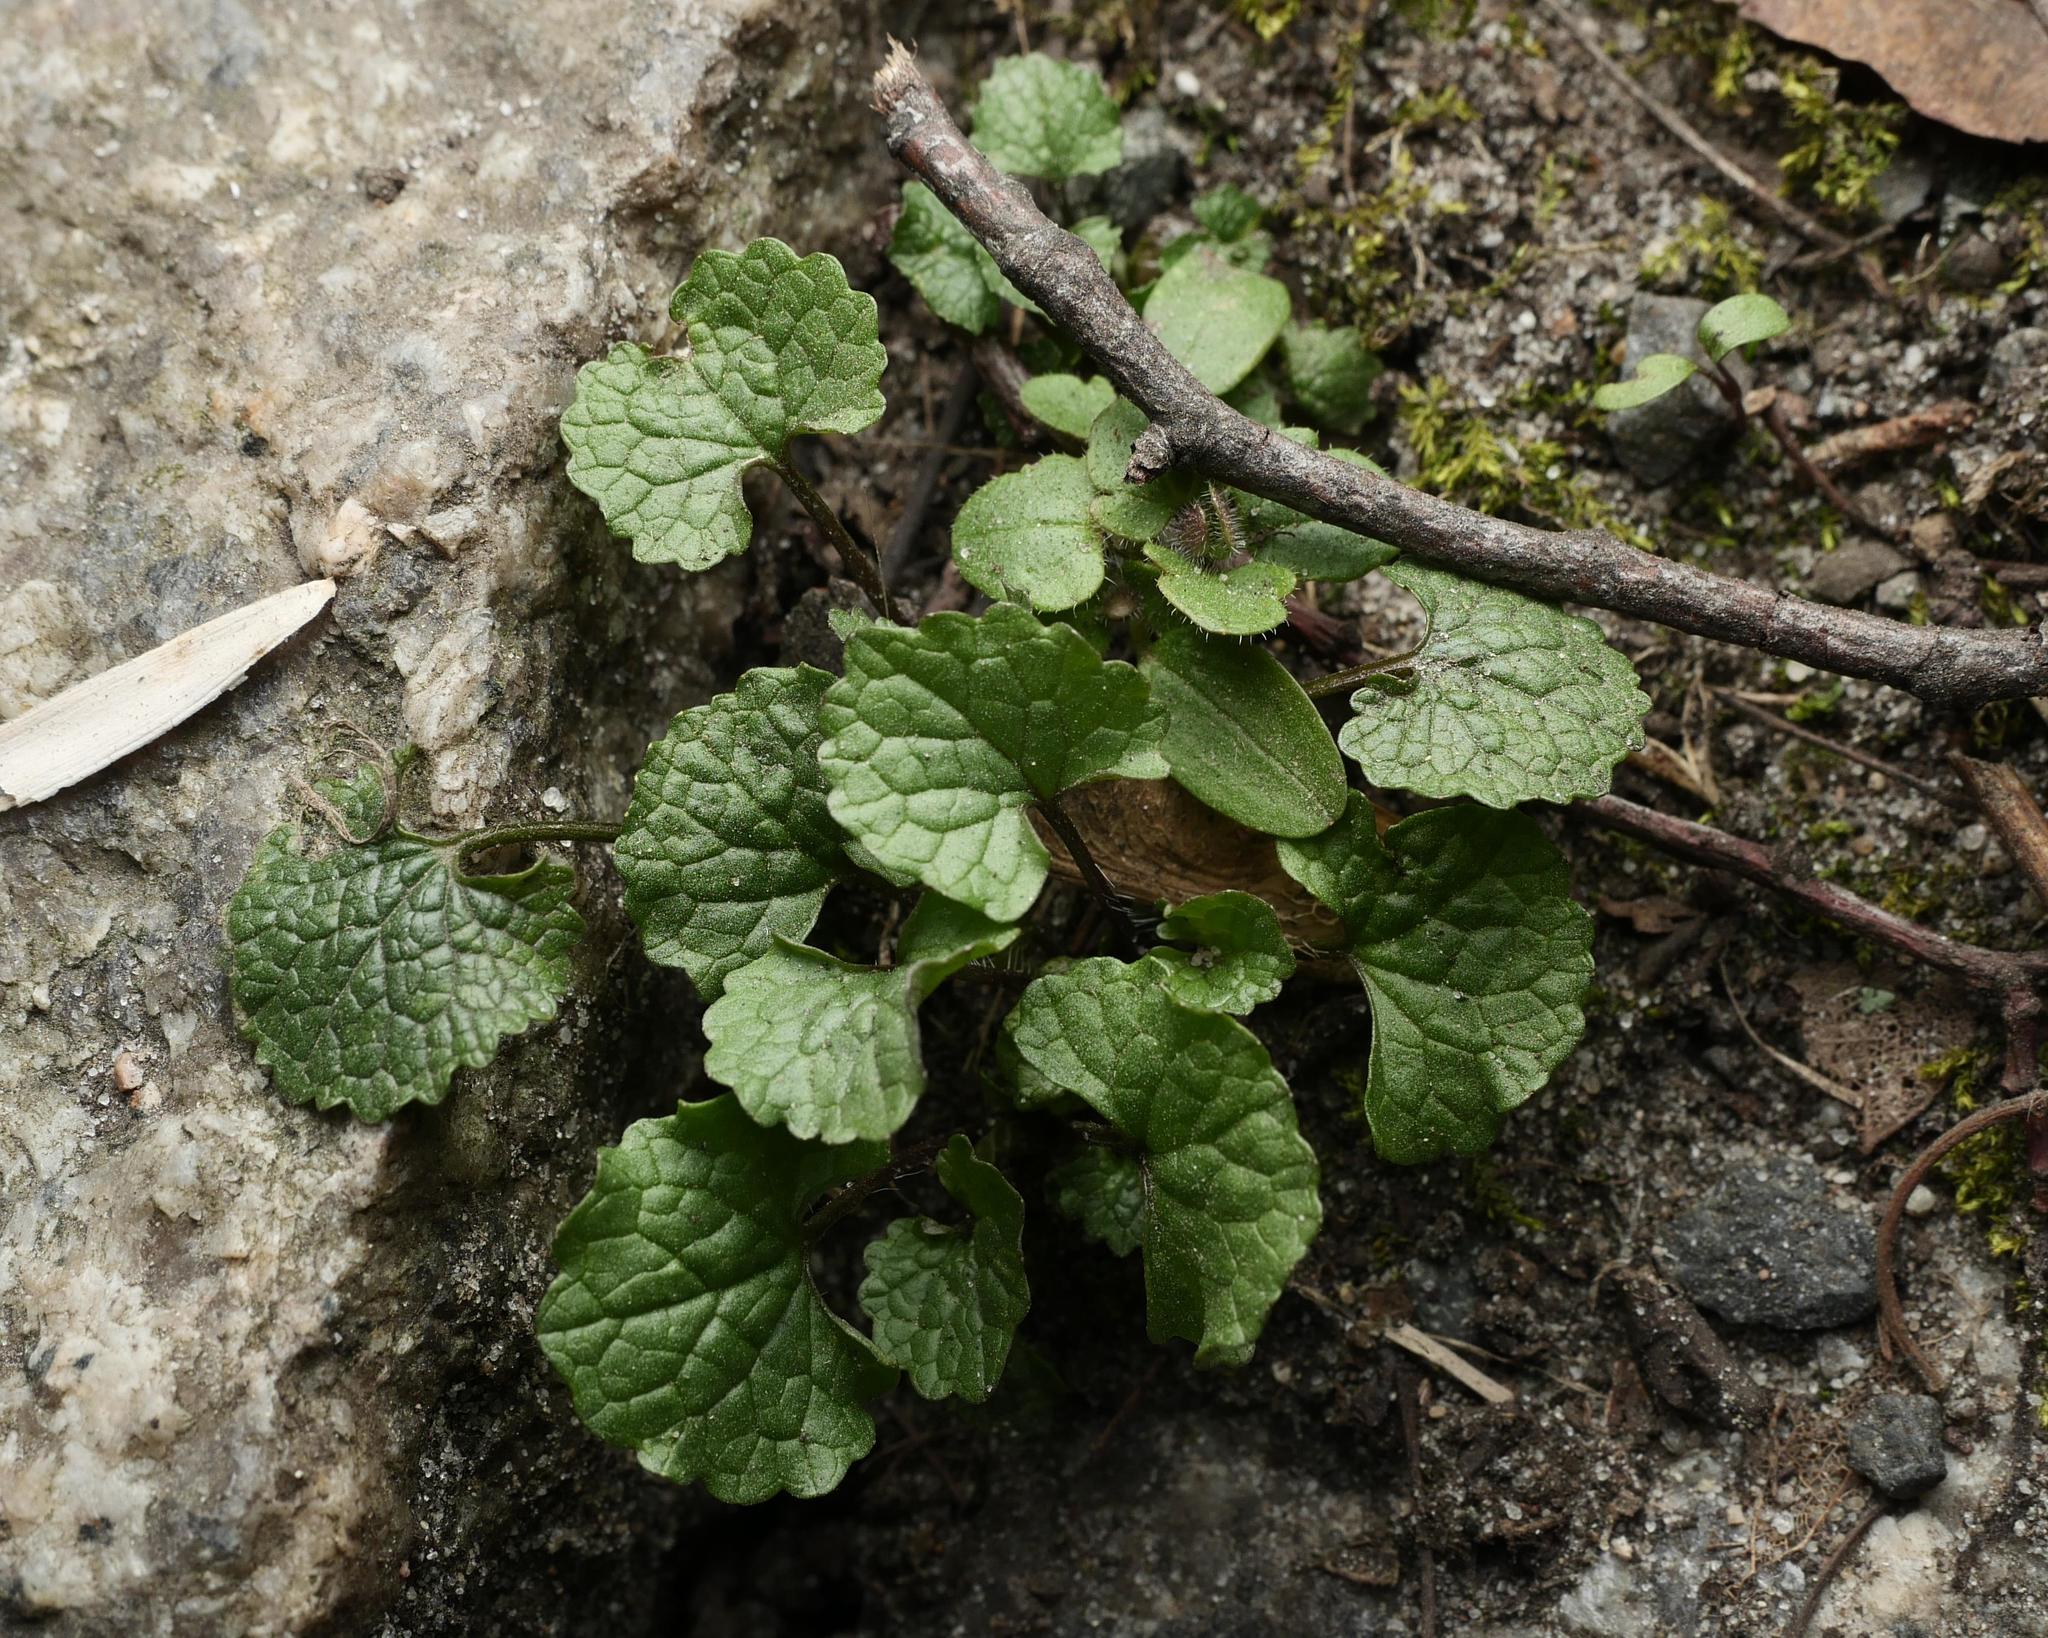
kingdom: Plantae
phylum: Tracheophyta
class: Magnoliopsida
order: Brassicales
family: Brassicaceae
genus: Alliaria
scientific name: Alliaria petiolata
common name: Garlic mustard
